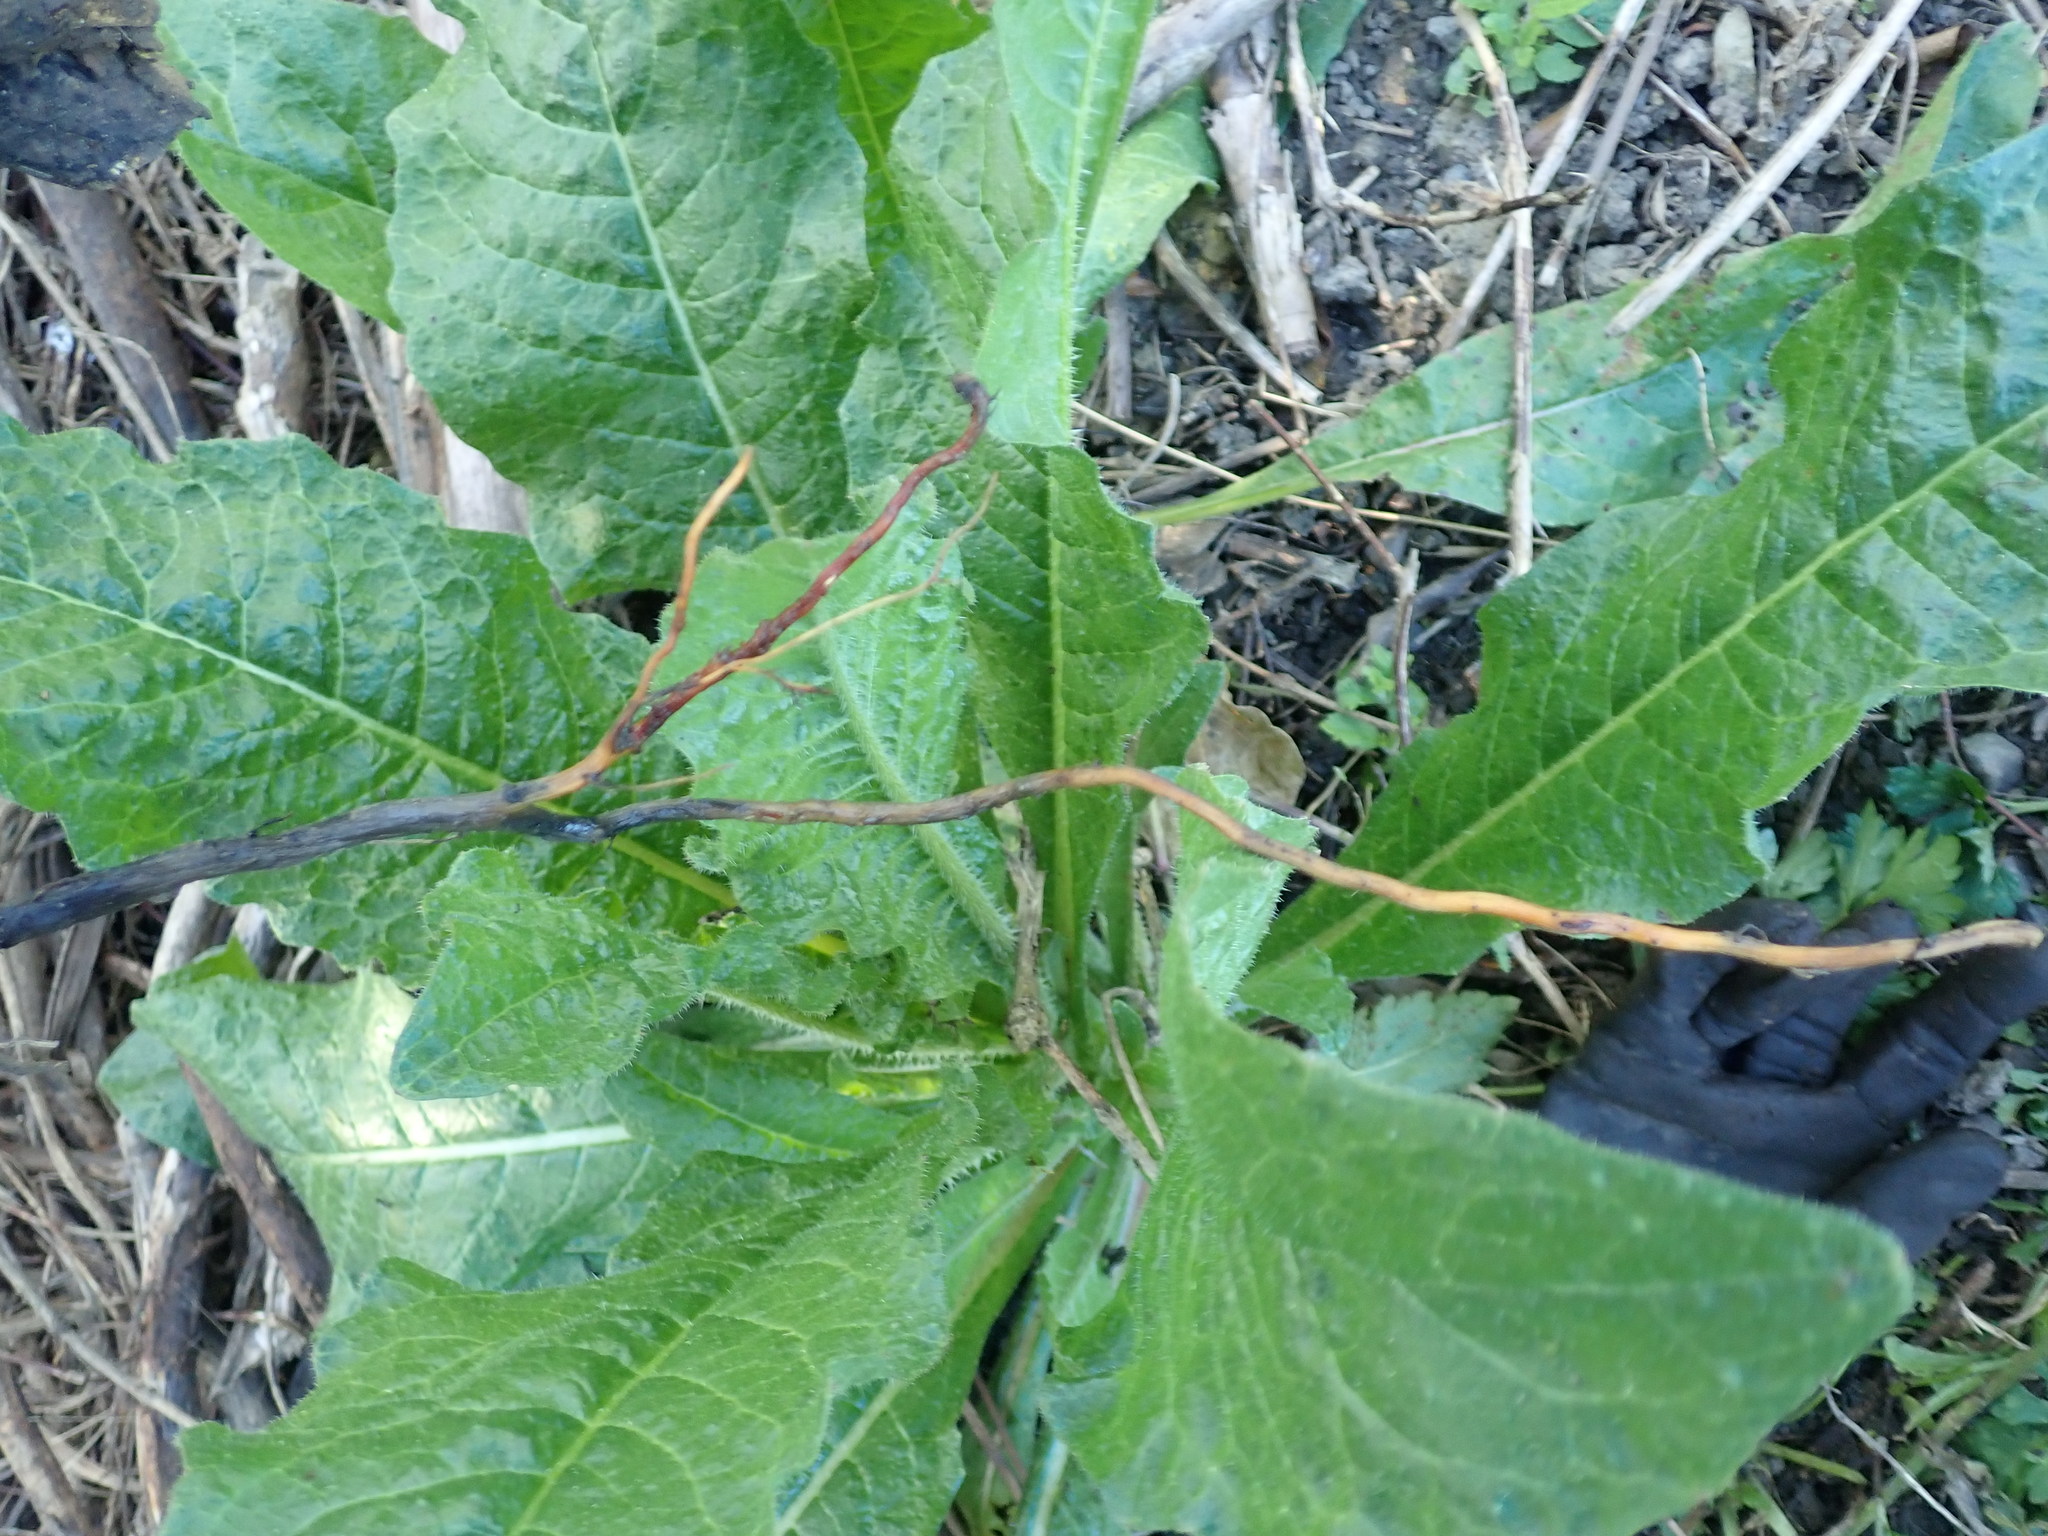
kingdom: Plantae
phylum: Tracheophyta
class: Magnoliopsida
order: Geraniales
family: Melianthaceae
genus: Melianthus
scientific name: Melianthus major
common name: Honey-flower
